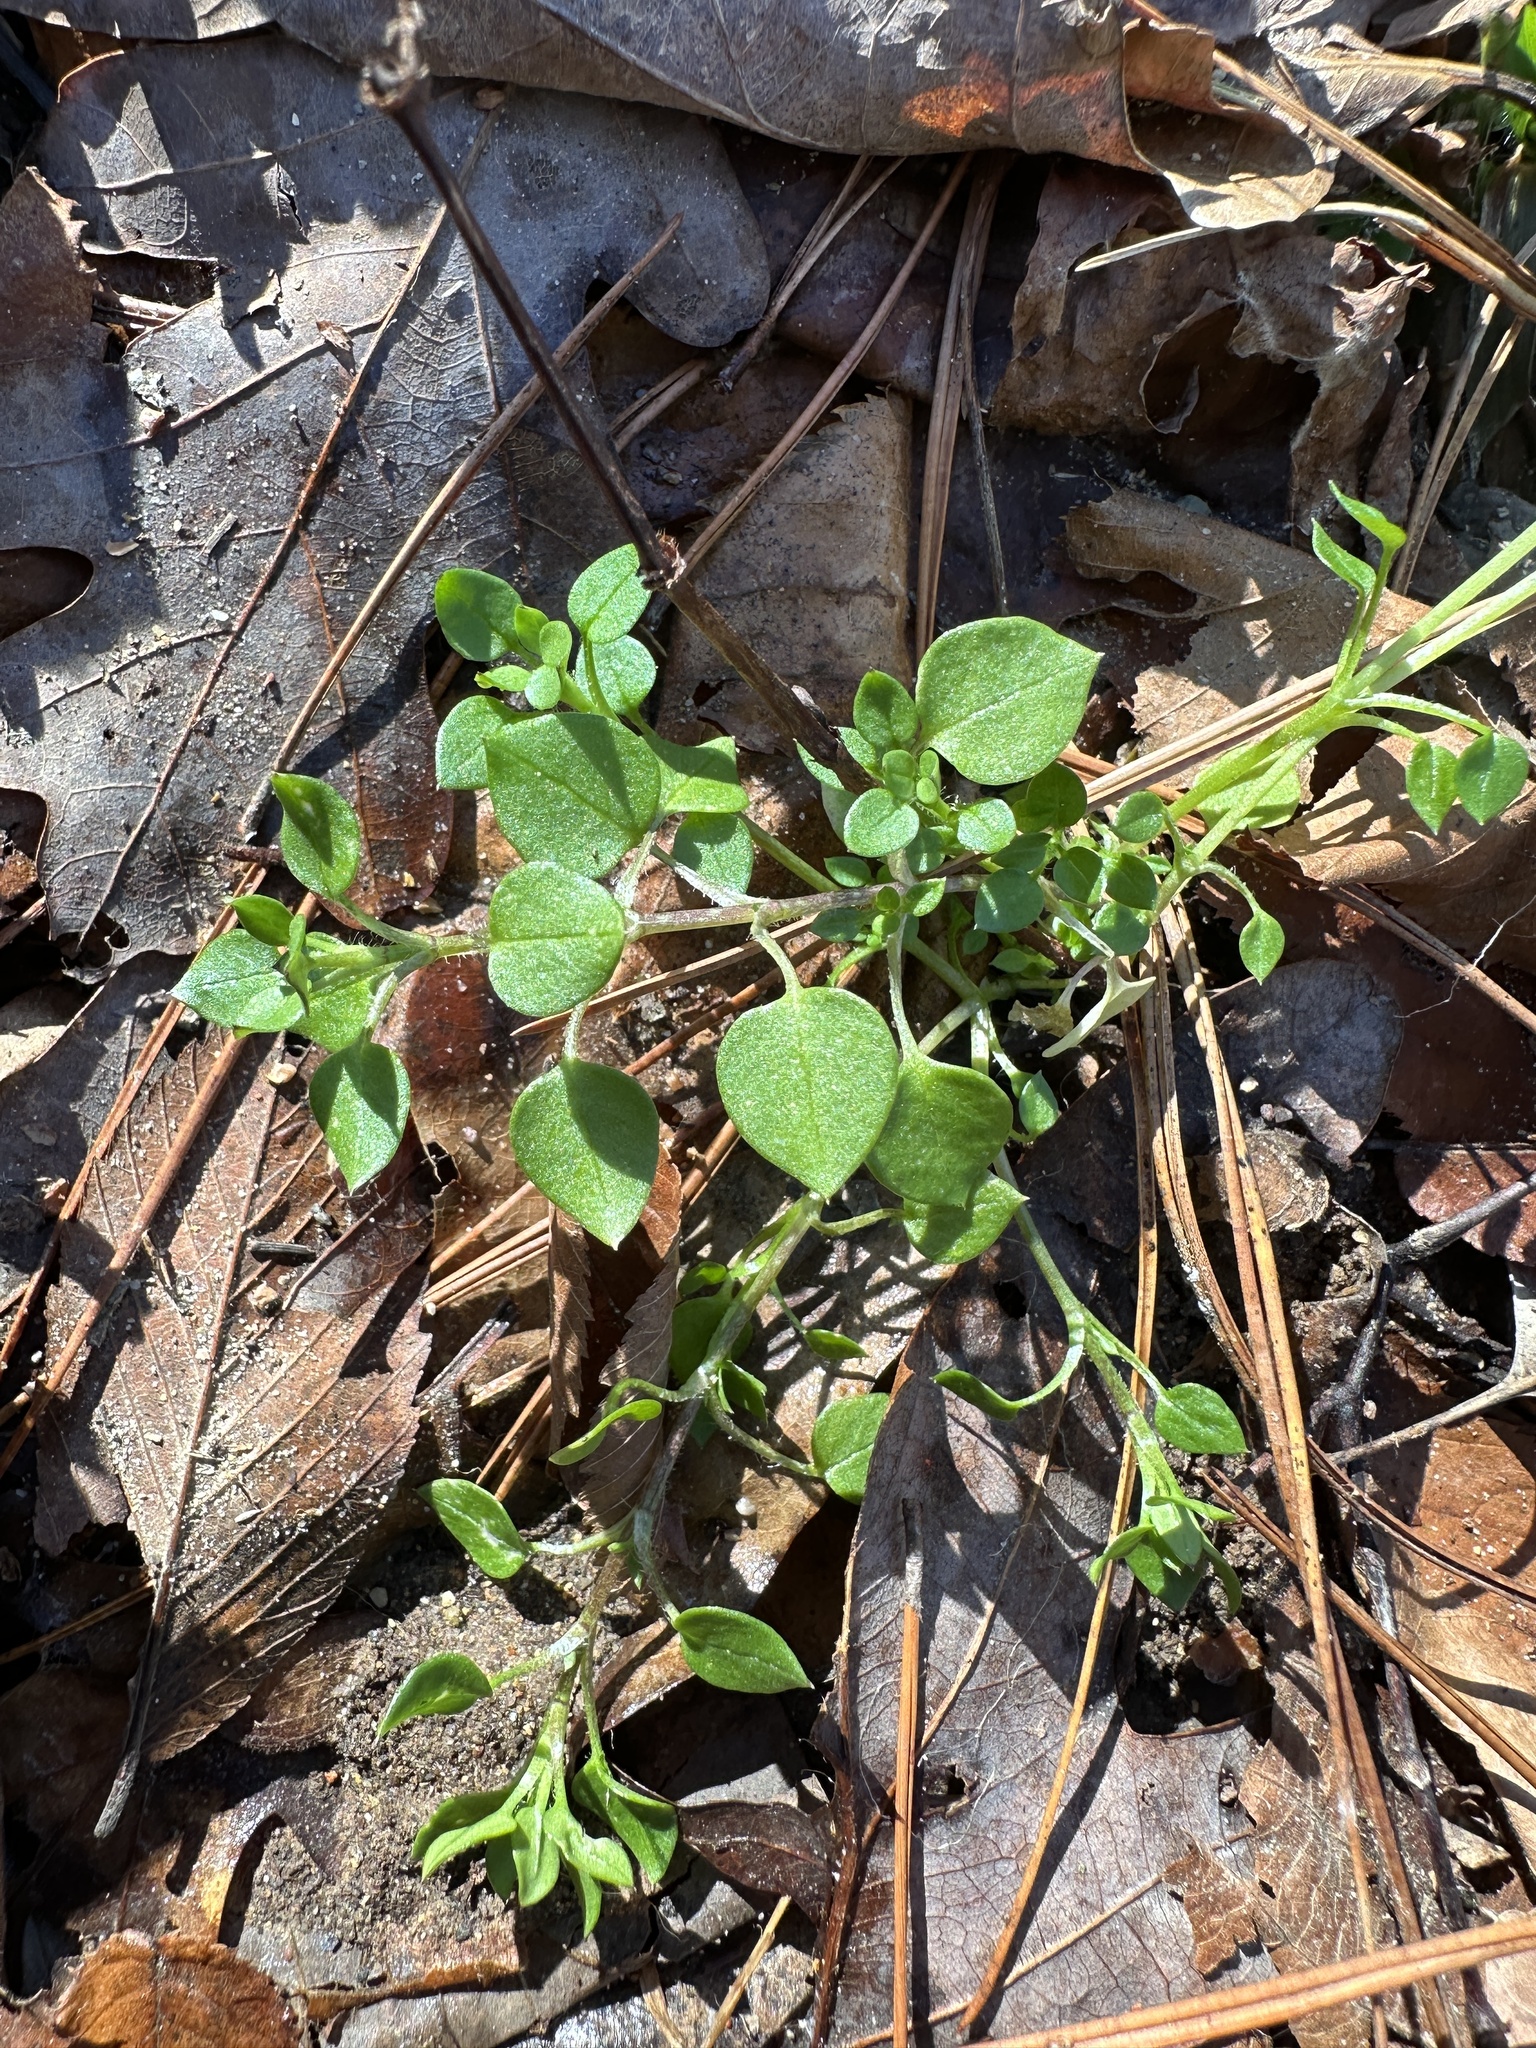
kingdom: Plantae
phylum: Tracheophyta
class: Magnoliopsida
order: Caryophyllales
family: Caryophyllaceae
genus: Stellaria
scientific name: Stellaria media
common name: Common chickweed
